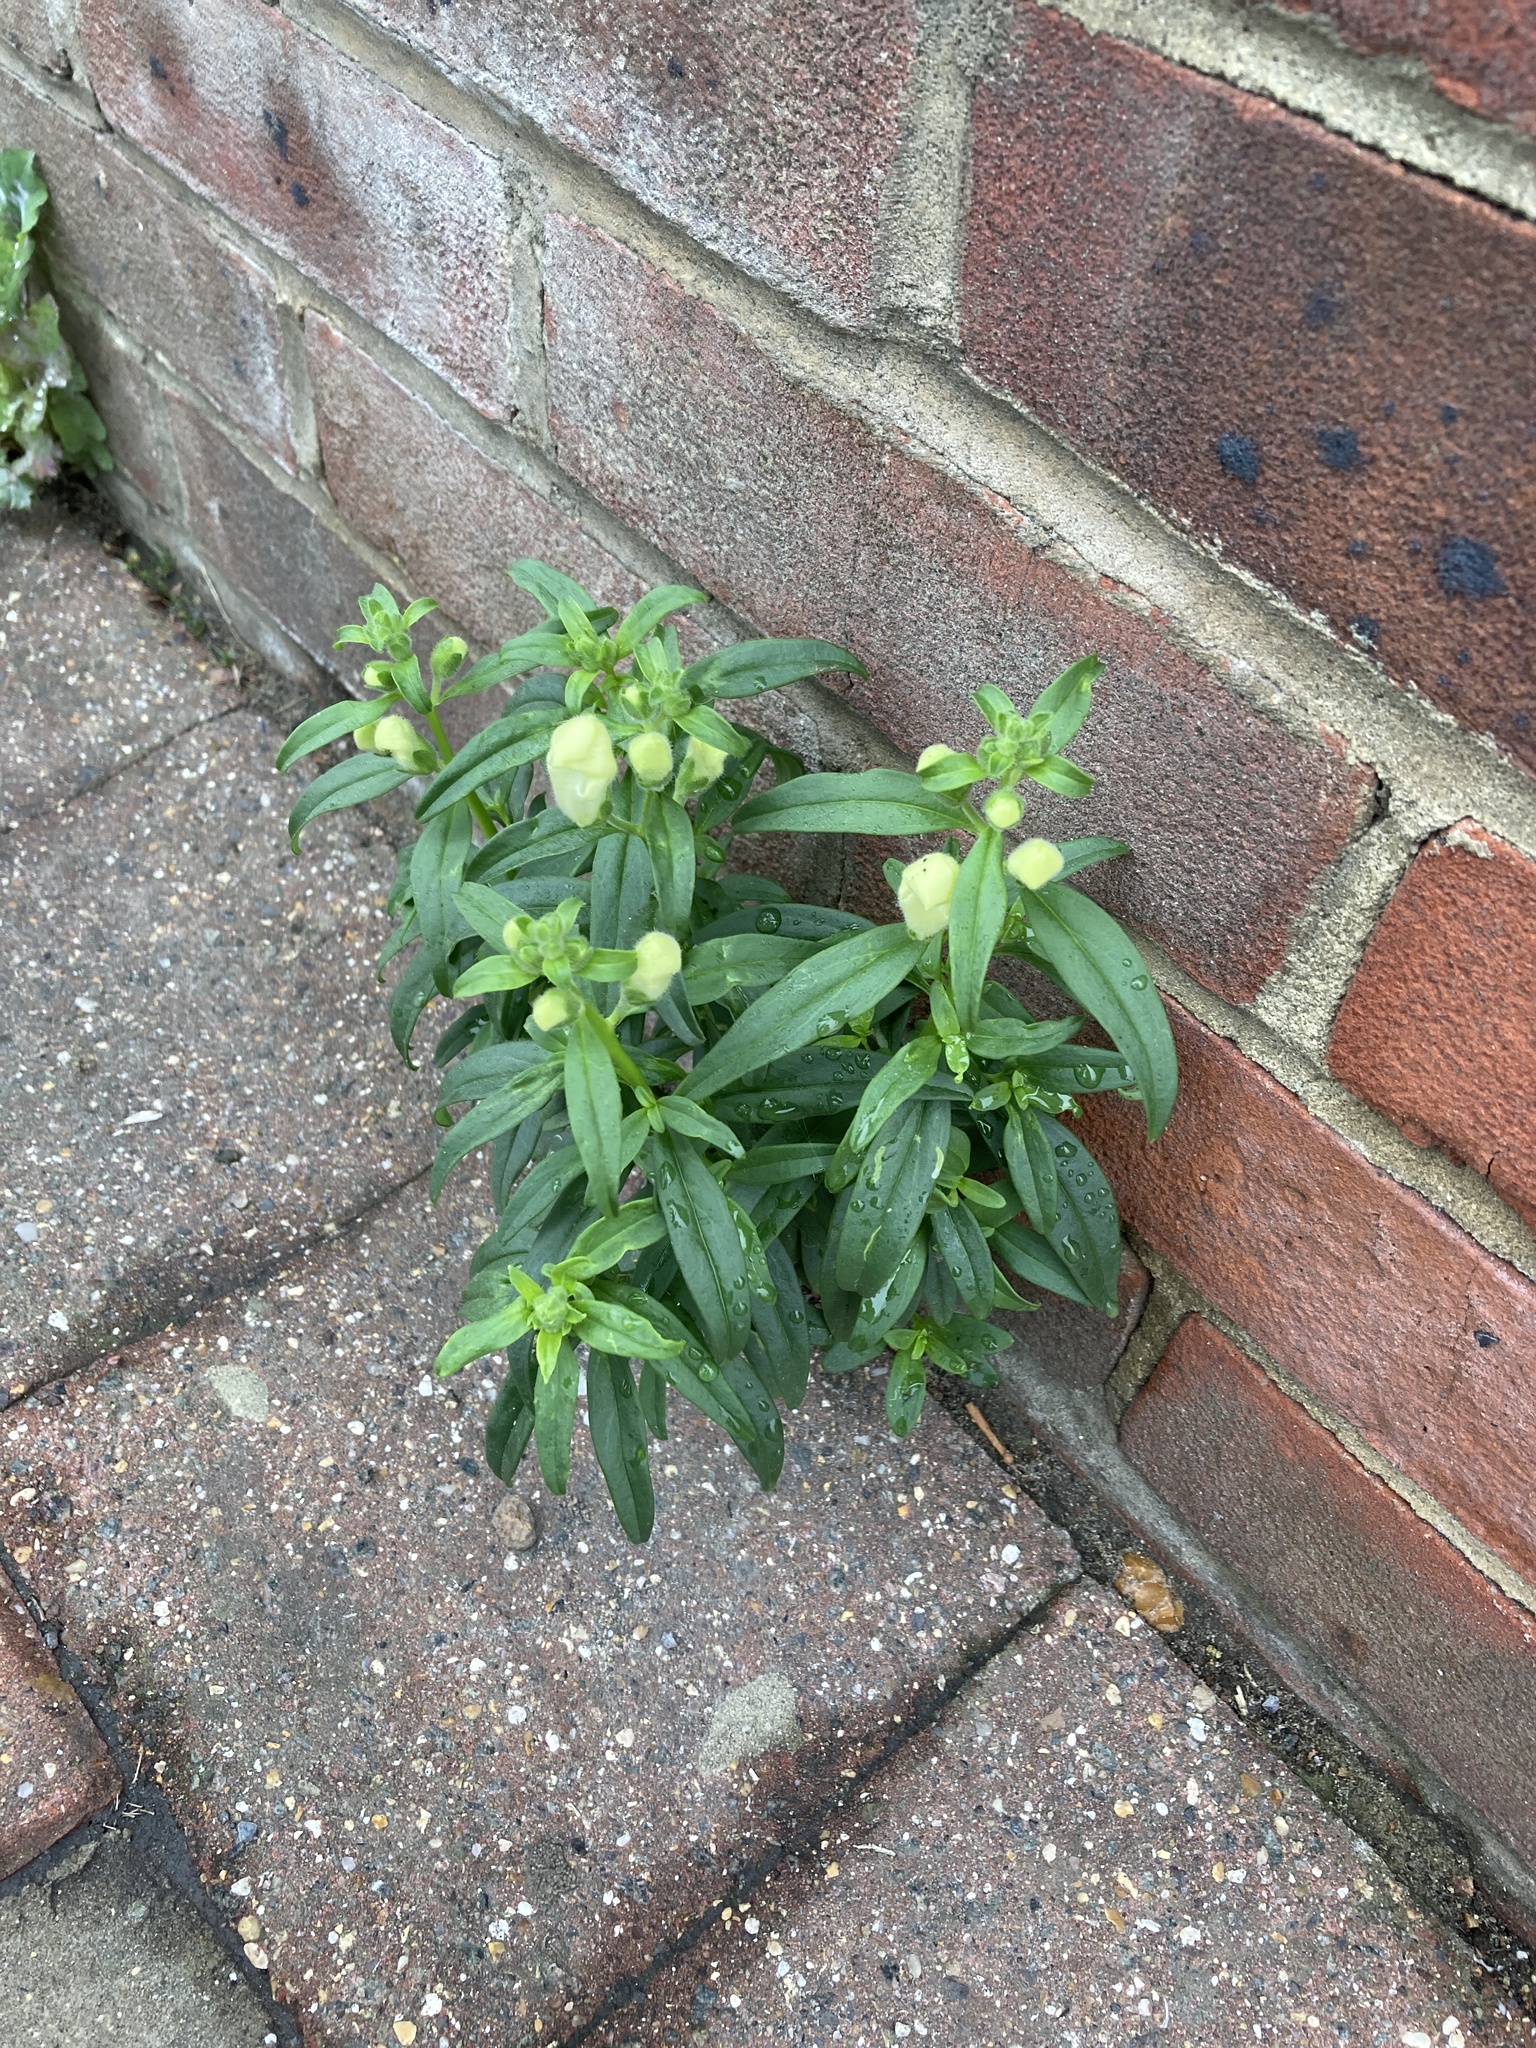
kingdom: Plantae
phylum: Tracheophyta
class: Magnoliopsida
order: Lamiales
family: Plantaginaceae
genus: Antirrhinum
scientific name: Antirrhinum majus
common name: Snapdragon
